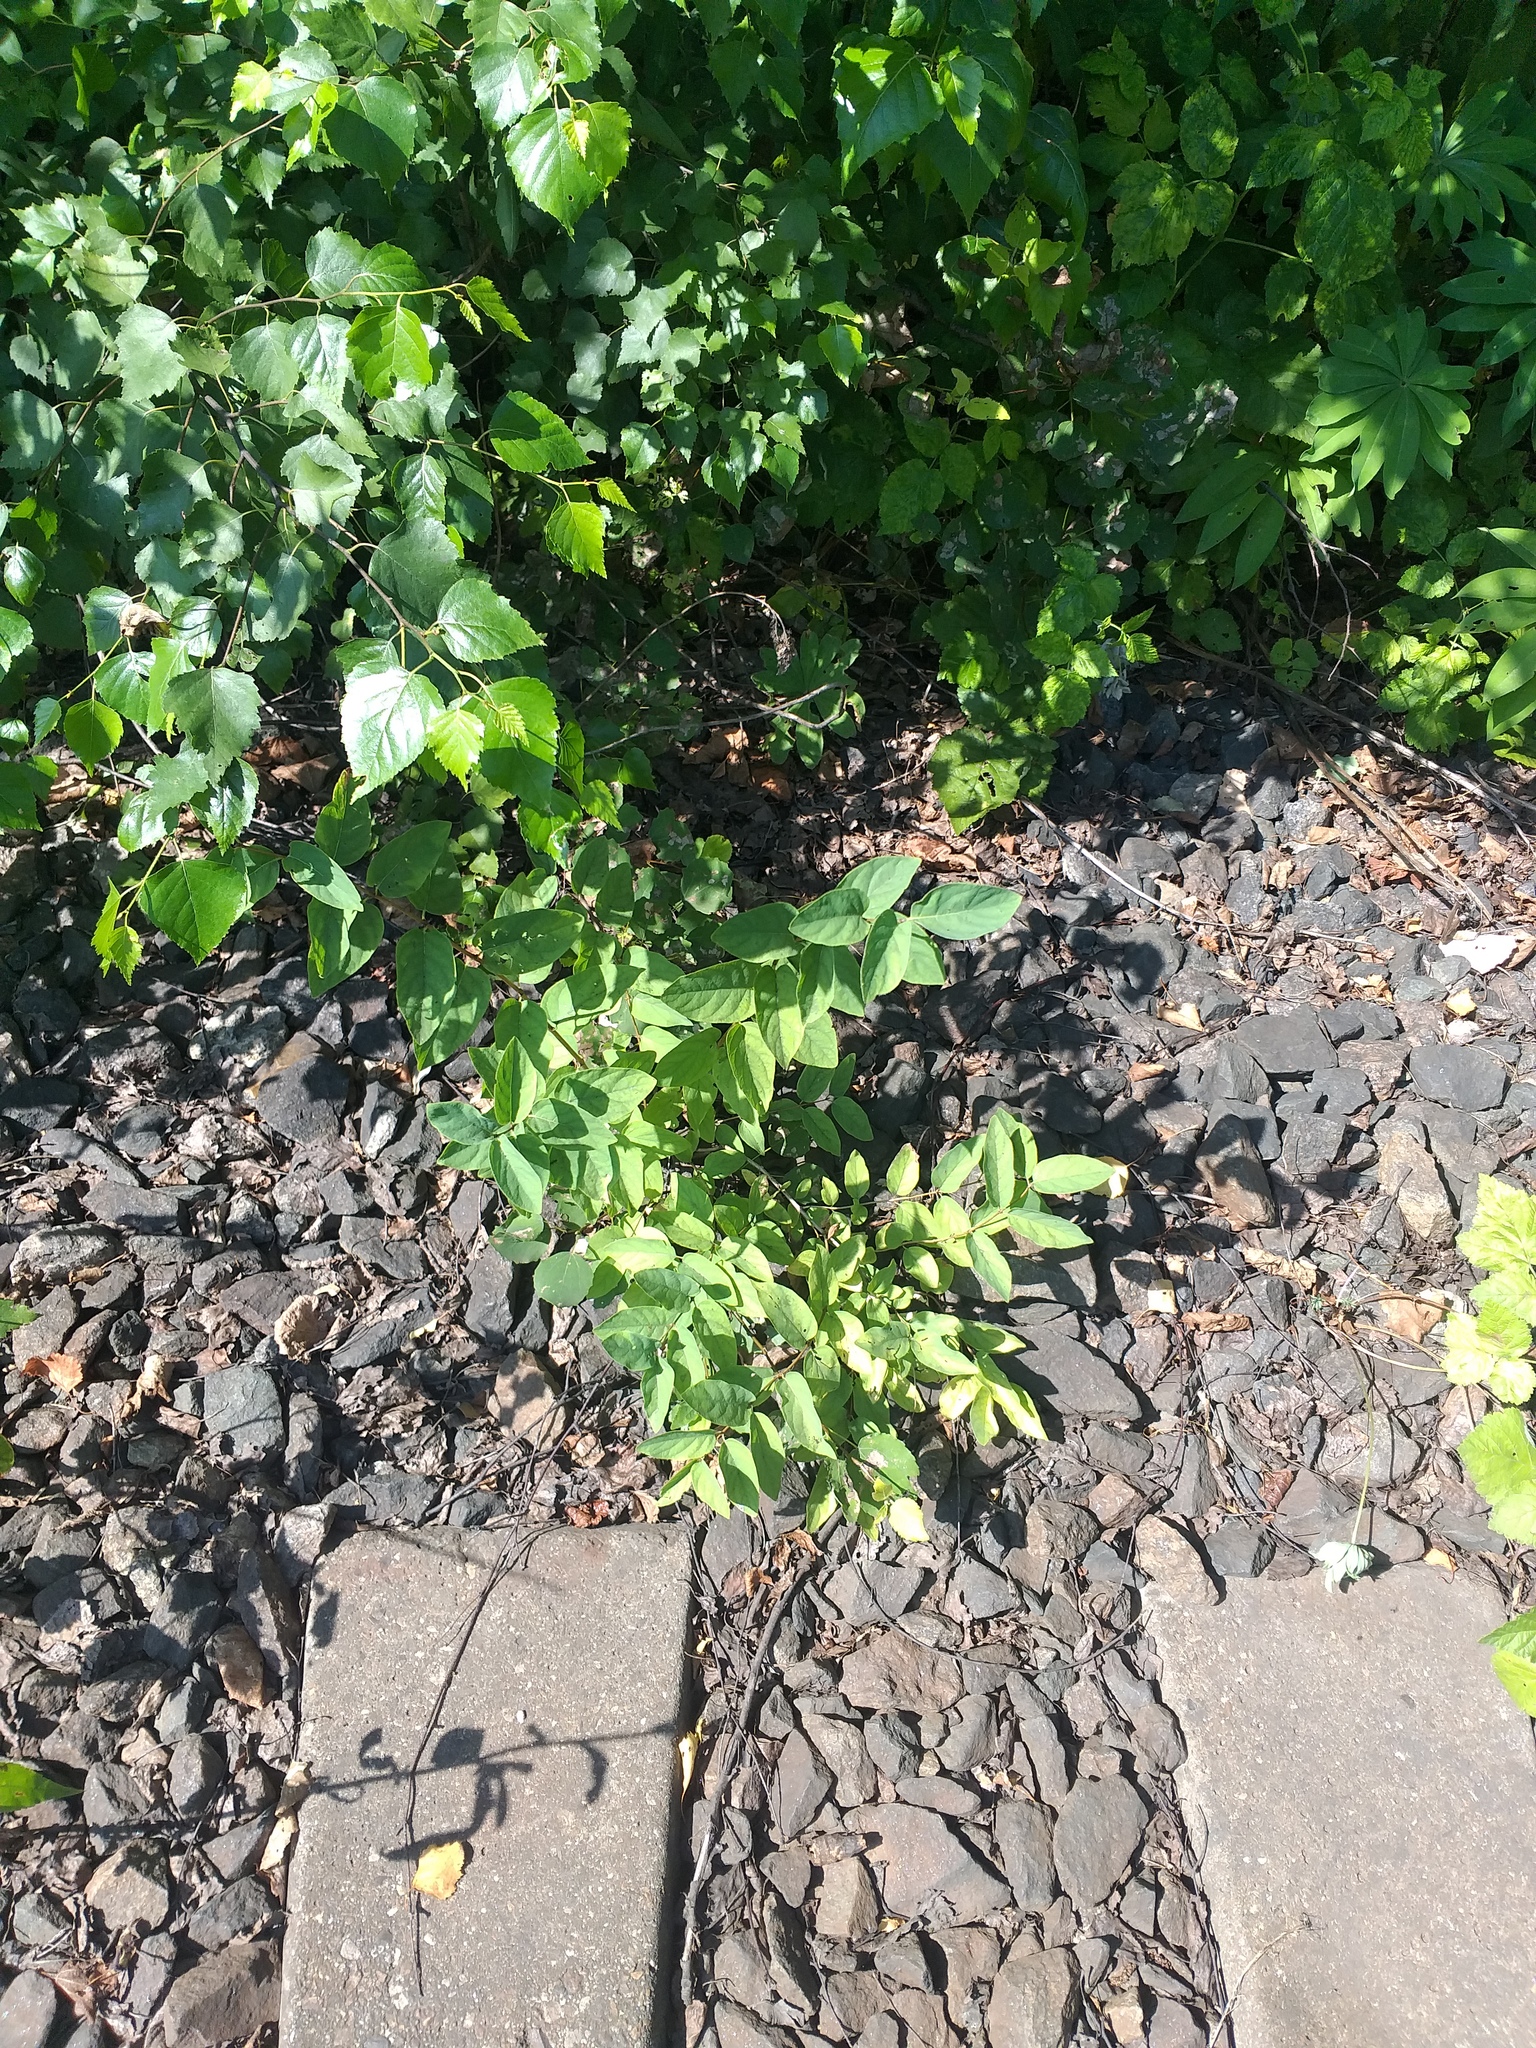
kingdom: Plantae
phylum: Tracheophyta
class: Magnoliopsida
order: Dipsacales
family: Caprifoliaceae
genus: Lonicera
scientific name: Lonicera tatarica
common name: Tatarian honeysuckle
